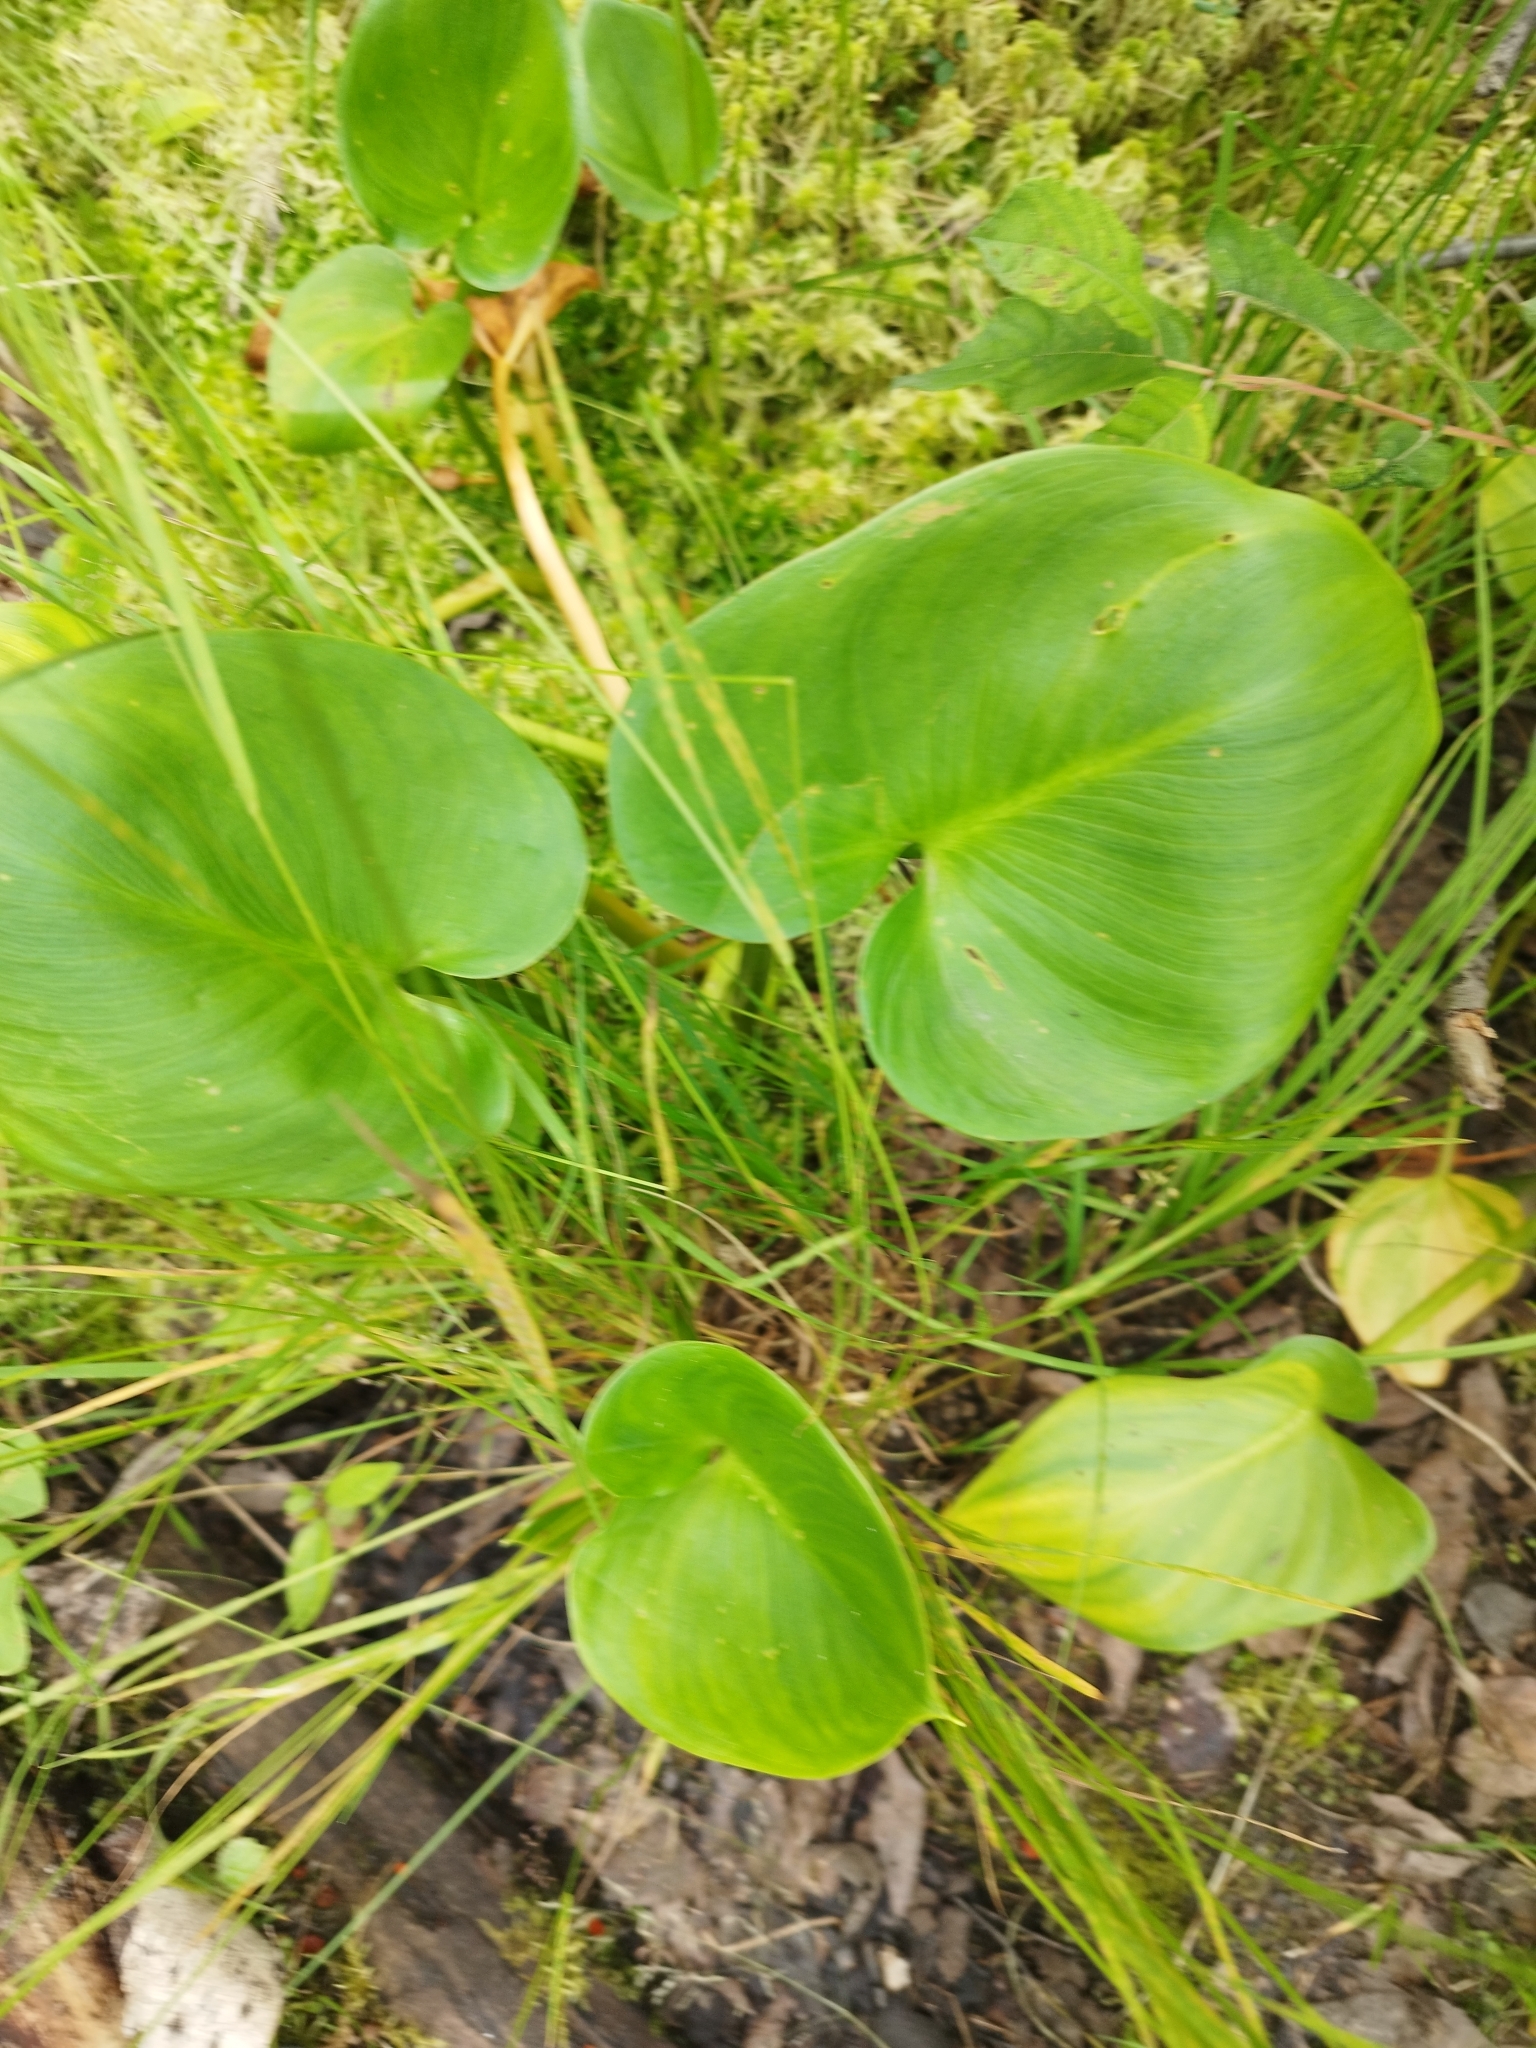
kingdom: Plantae
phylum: Tracheophyta
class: Liliopsida
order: Alismatales
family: Araceae
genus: Calla
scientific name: Calla palustris
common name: Bog arum
